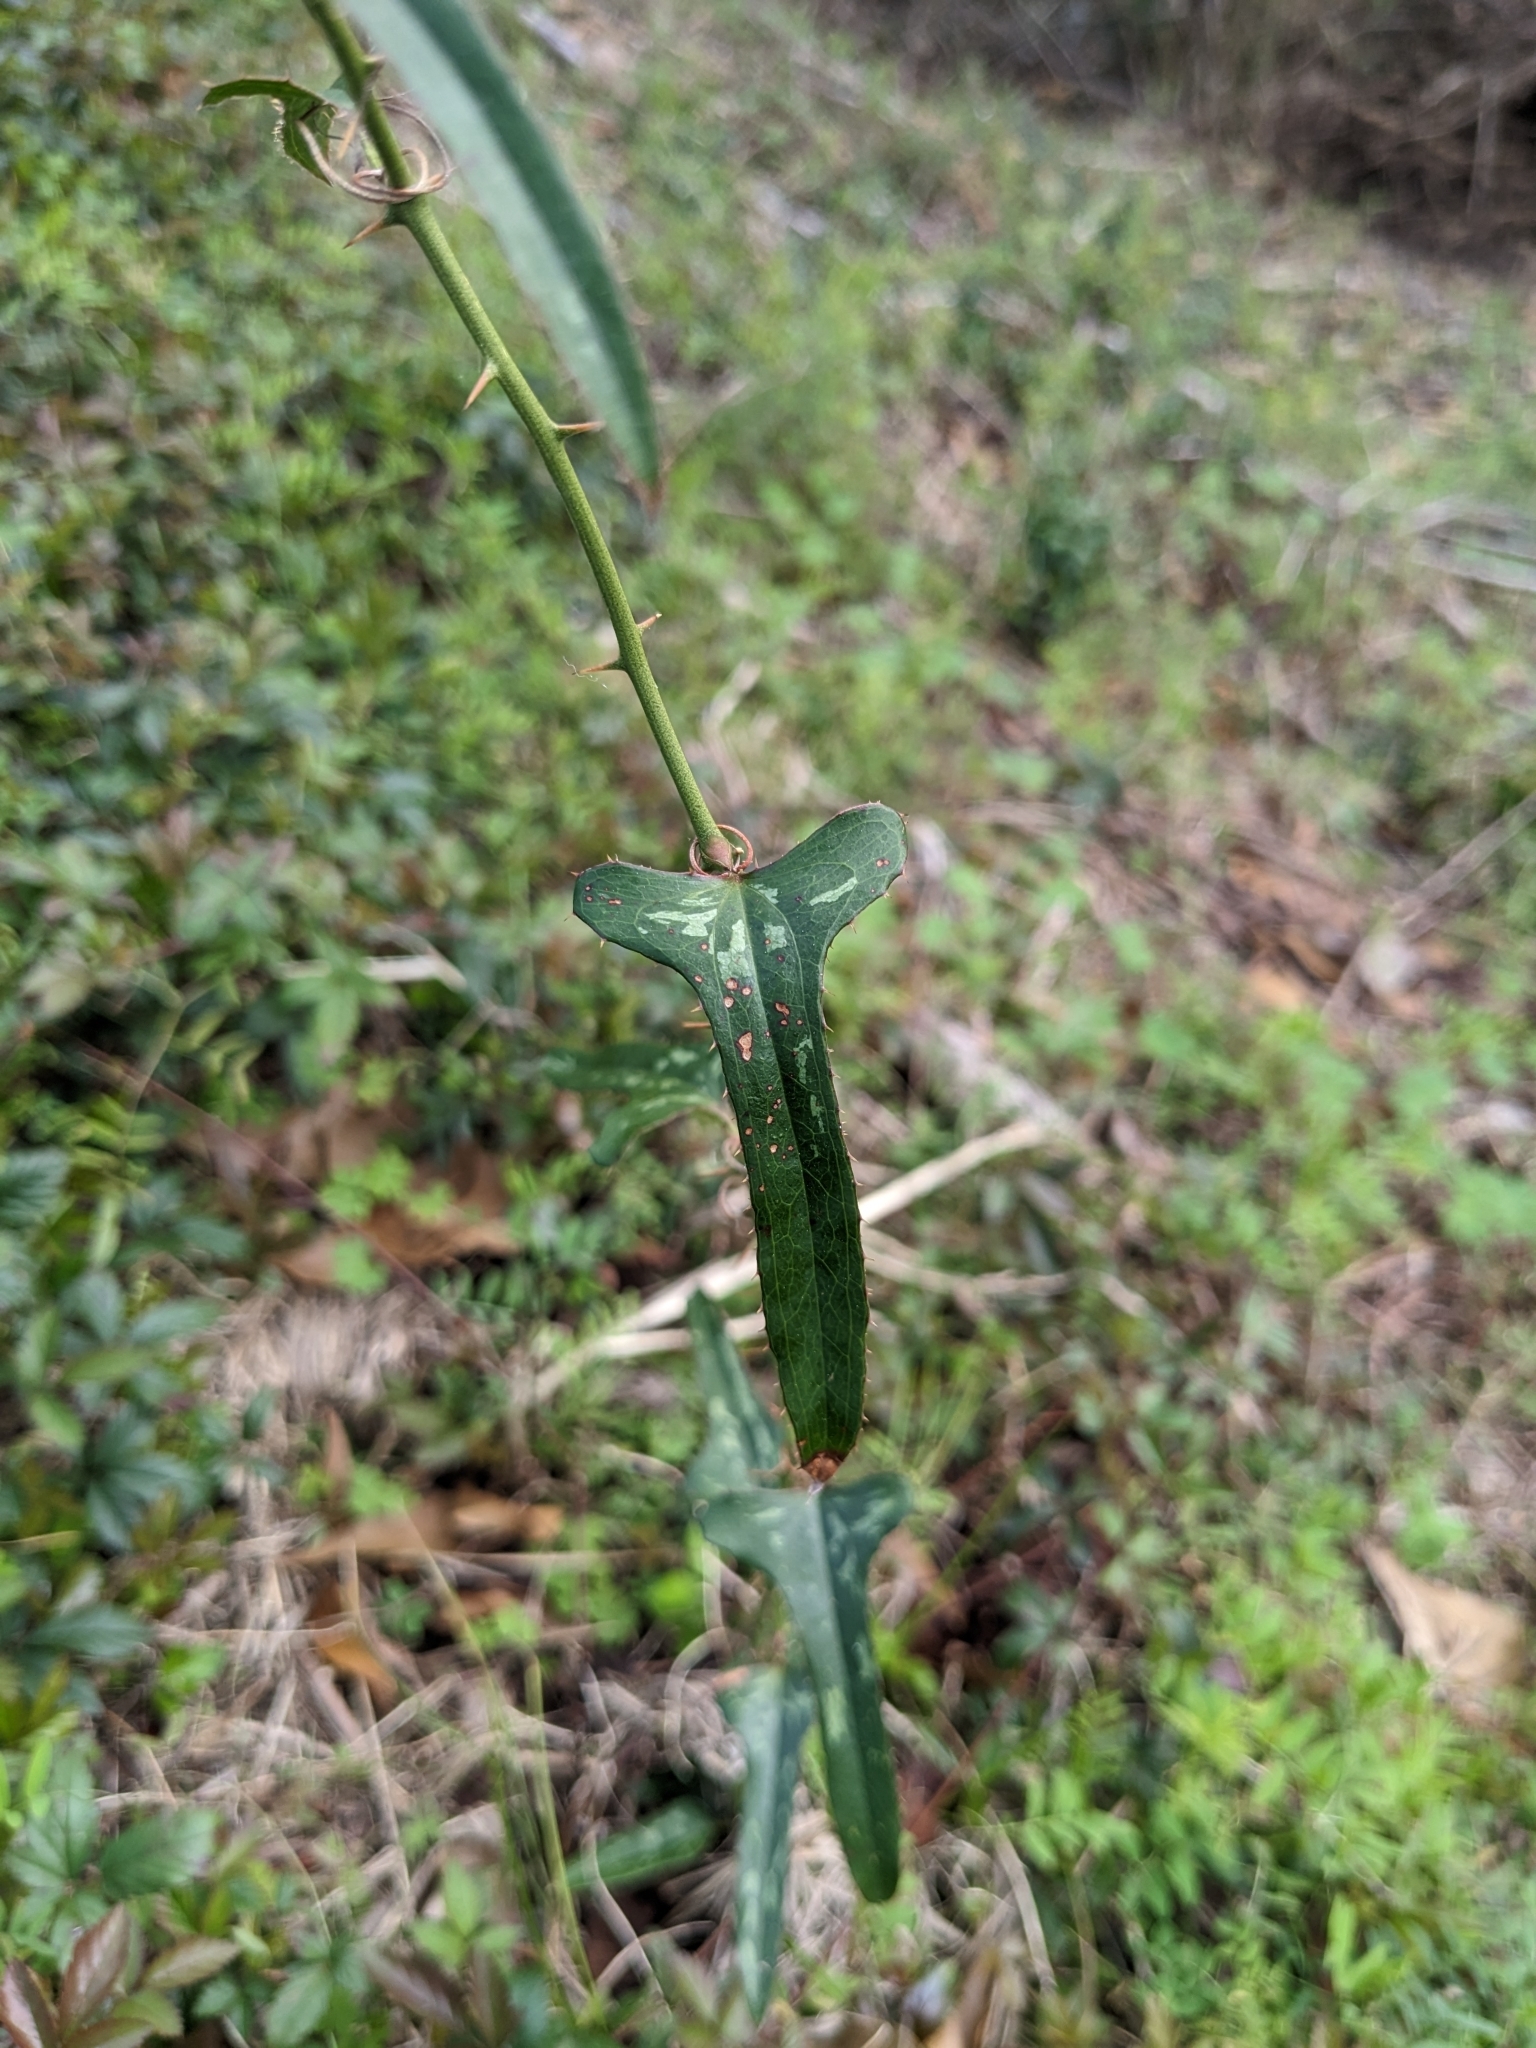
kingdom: Plantae
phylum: Tracheophyta
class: Liliopsida
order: Liliales
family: Smilacaceae
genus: Smilax
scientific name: Smilax bona-nox
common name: Catbrier
